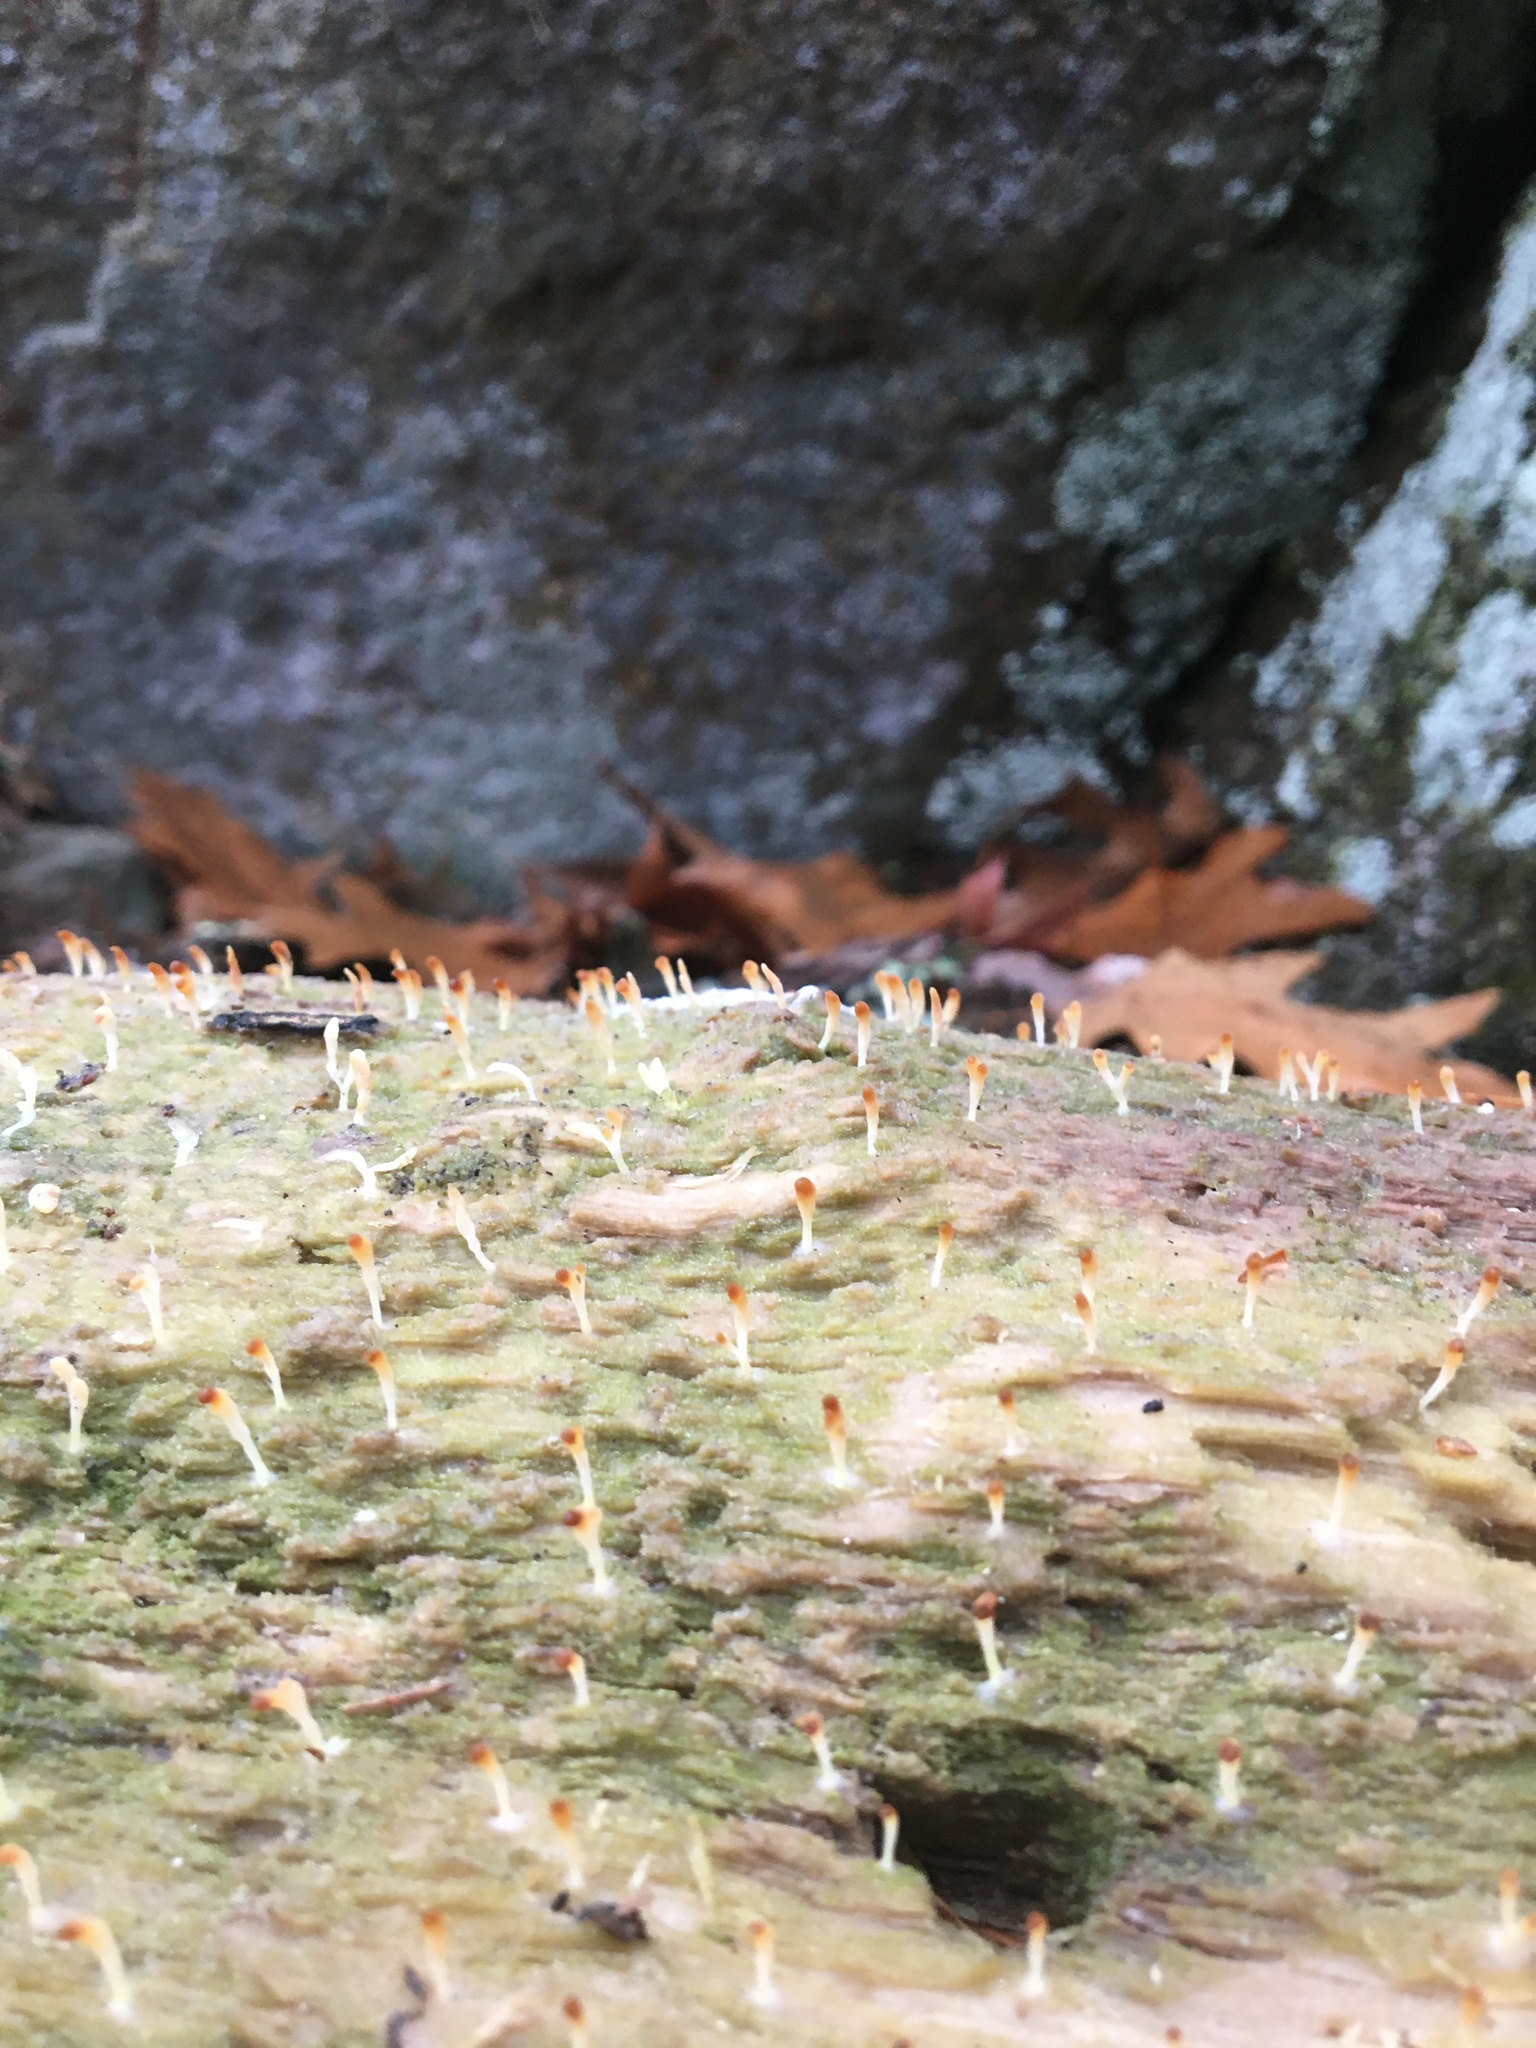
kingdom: Fungi
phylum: Basidiomycota
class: Agaricomycetes
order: Cantharellales
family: Hydnaceae
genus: Multiclavula
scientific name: Multiclavula mucida
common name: White green-algae coral
